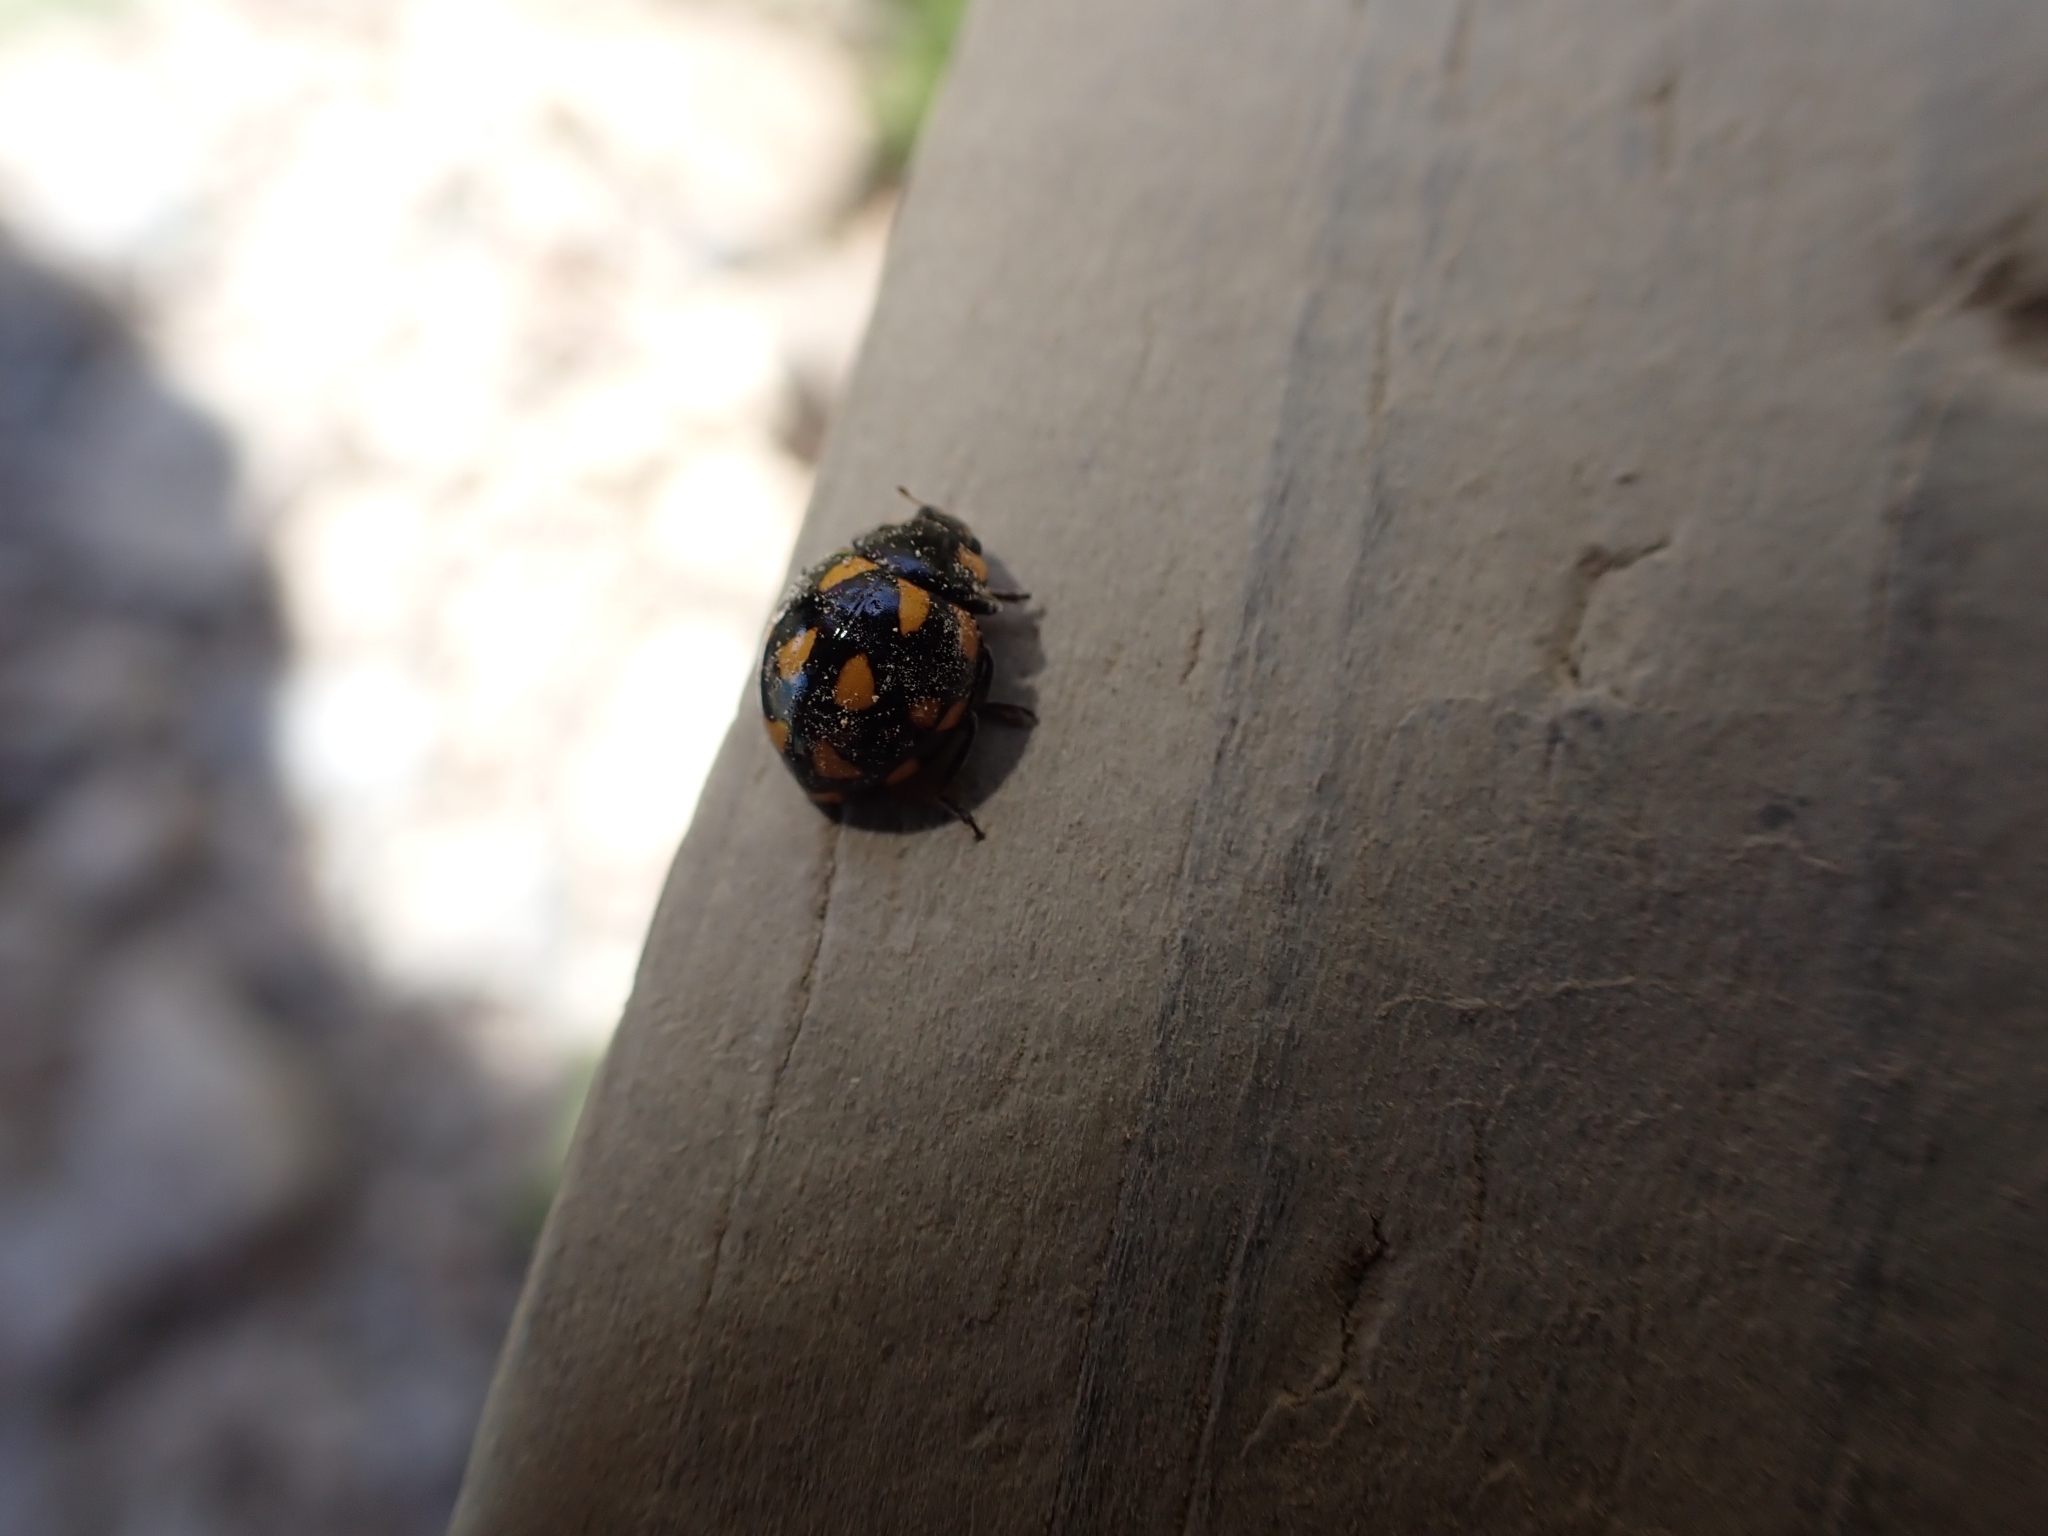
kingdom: Animalia
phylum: Arthropoda
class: Insecta
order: Coleoptera
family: Coccinellidae
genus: Coccinella
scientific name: Coccinella leonina
